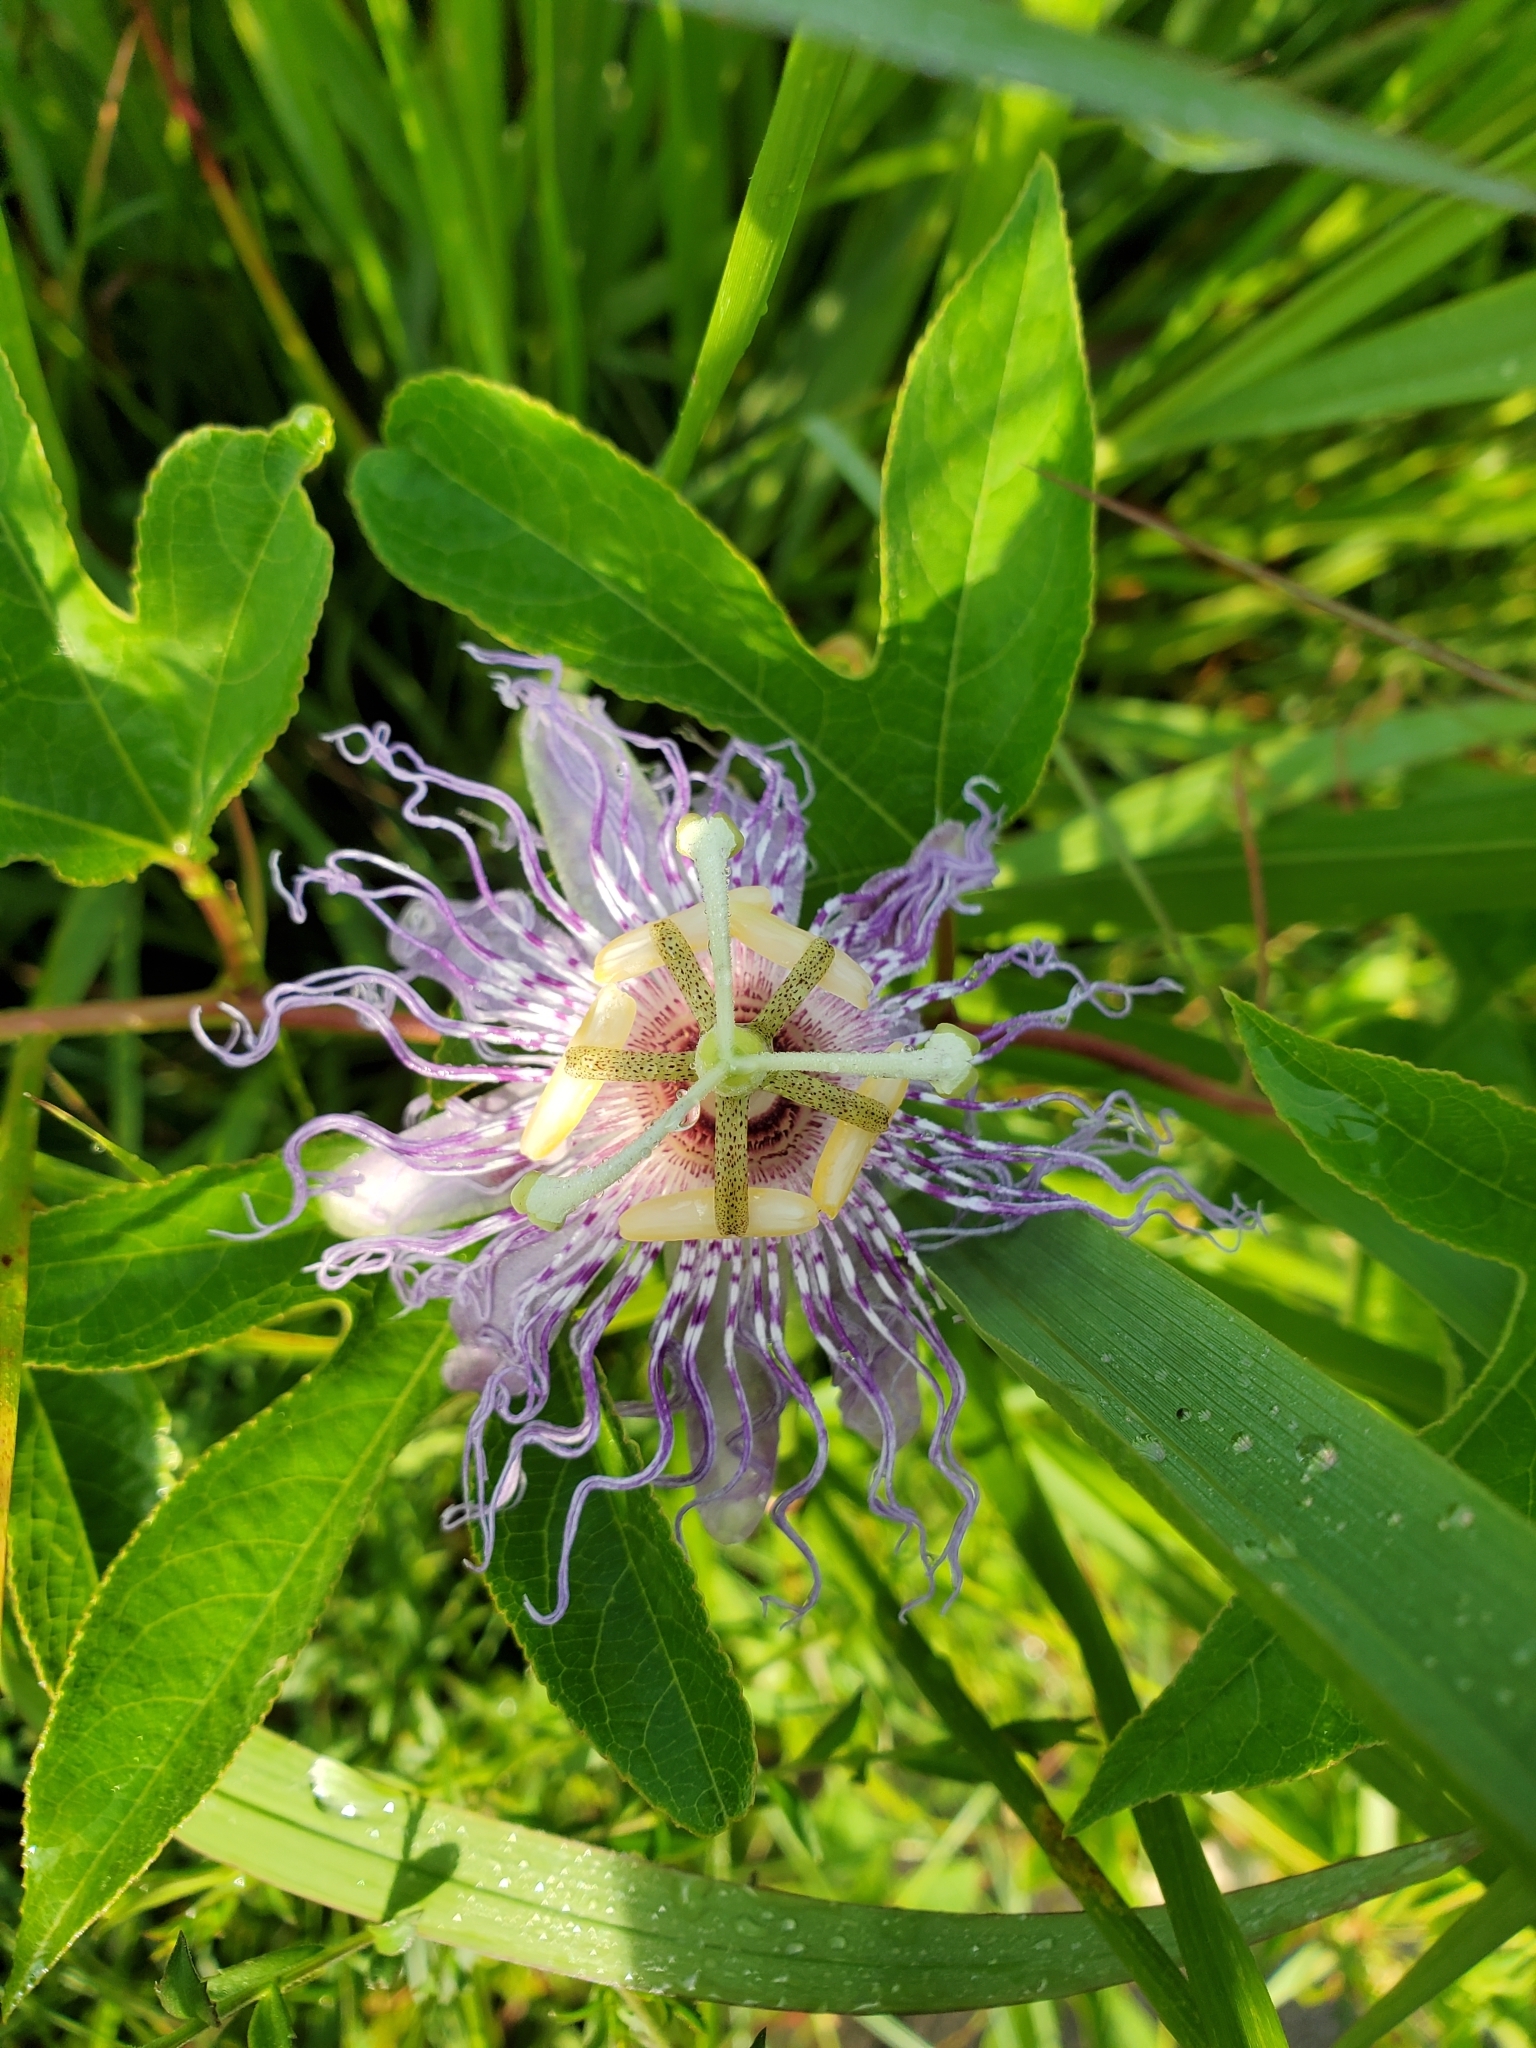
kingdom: Plantae
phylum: Tracheophyta
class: Magnoliopsida
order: Malpighiales
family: Passifloraceae
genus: Passiflora
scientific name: Passiflora incarnata
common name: Apricot-vine
